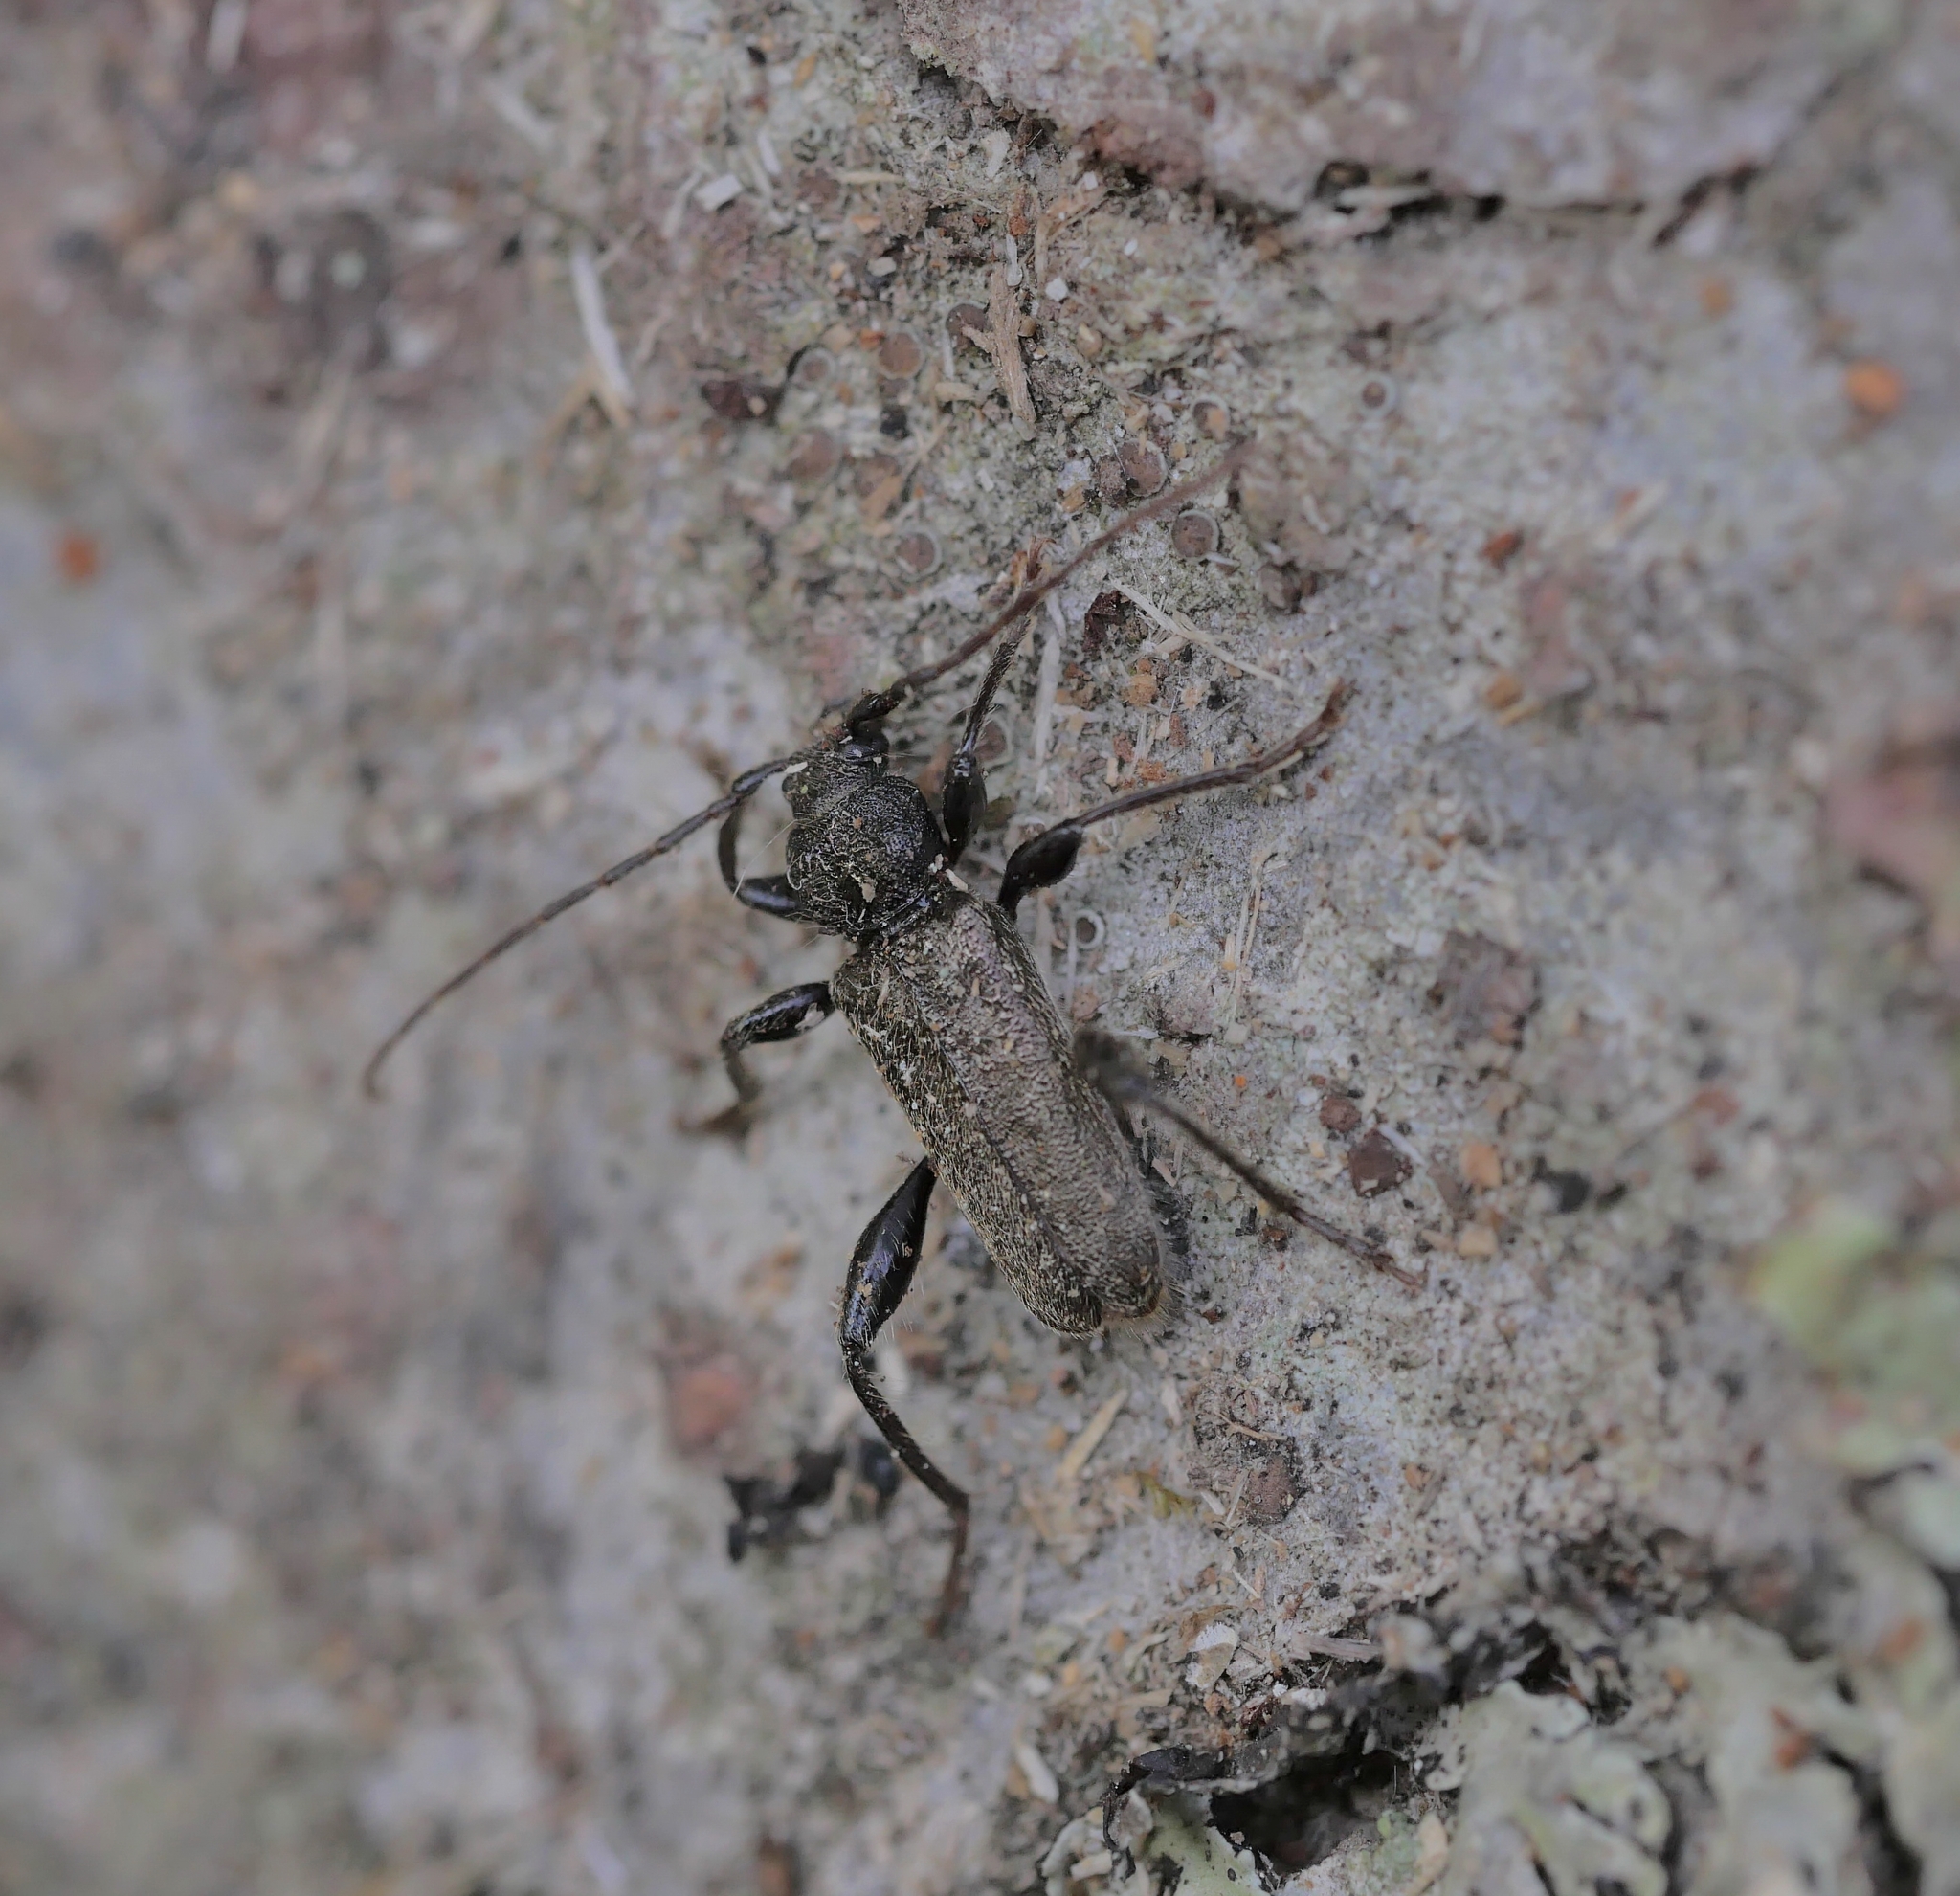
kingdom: Animalia
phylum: Arthropoda
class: Insecta
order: Coleoptera
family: Cerambycidae
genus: Callidium
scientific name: Callidium coriaceum
